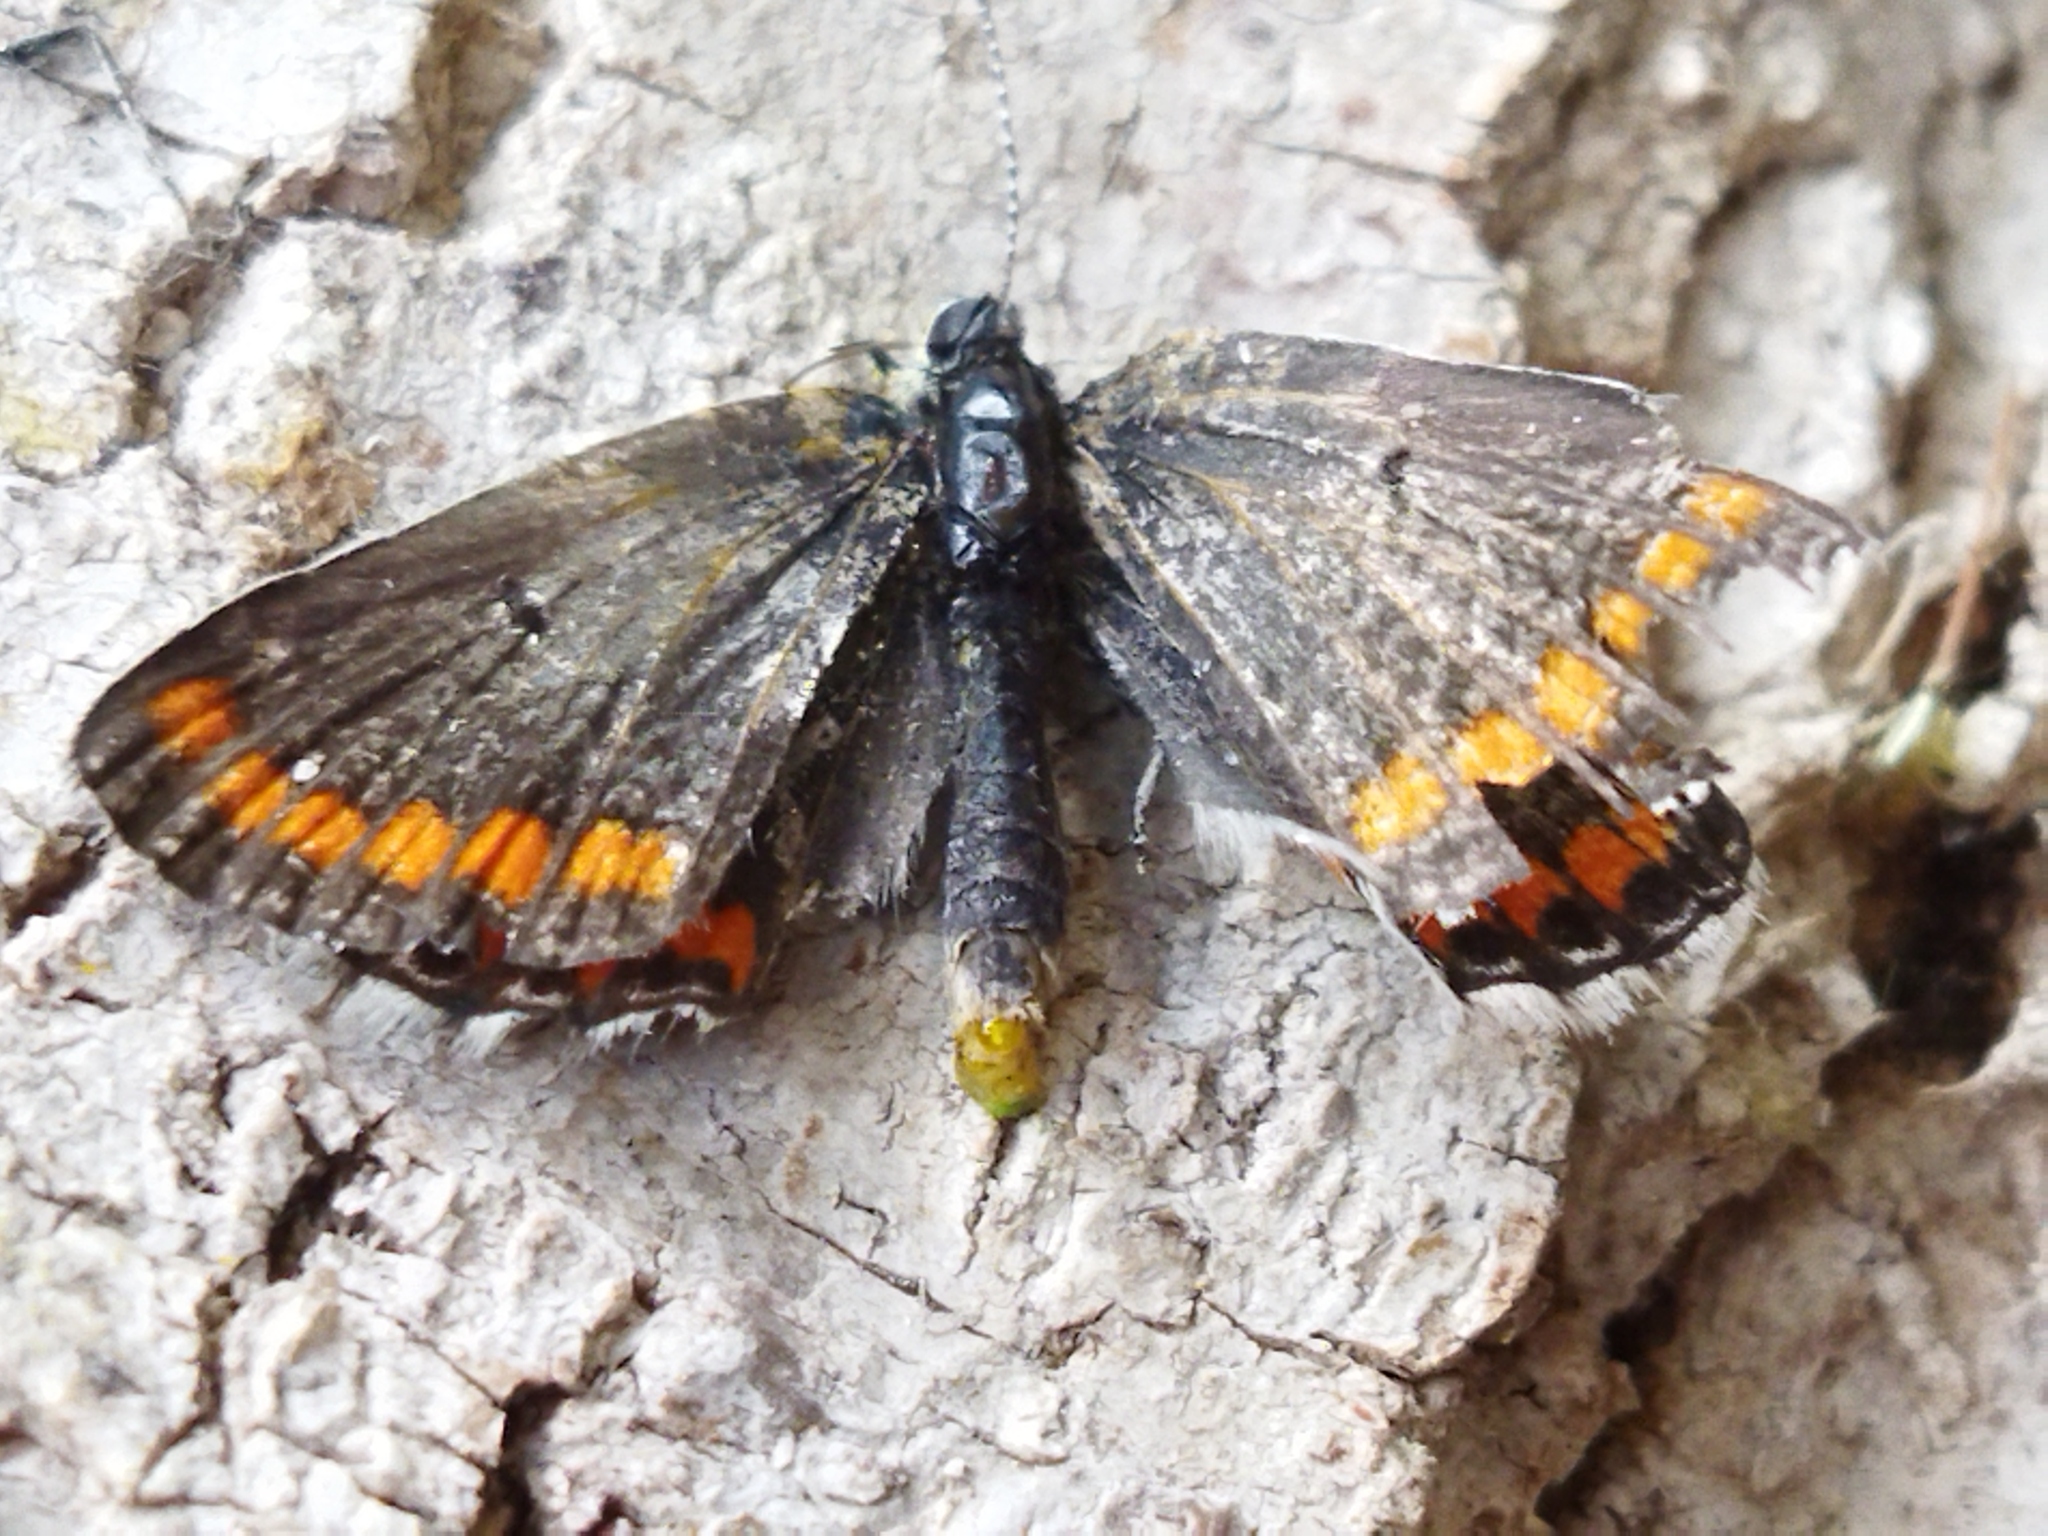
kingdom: Animalia
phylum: Arthropoda
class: Insecta
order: Lepidoptera
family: Lycaenidae
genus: Aricia
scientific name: Aricia agestis
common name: Brown argus
